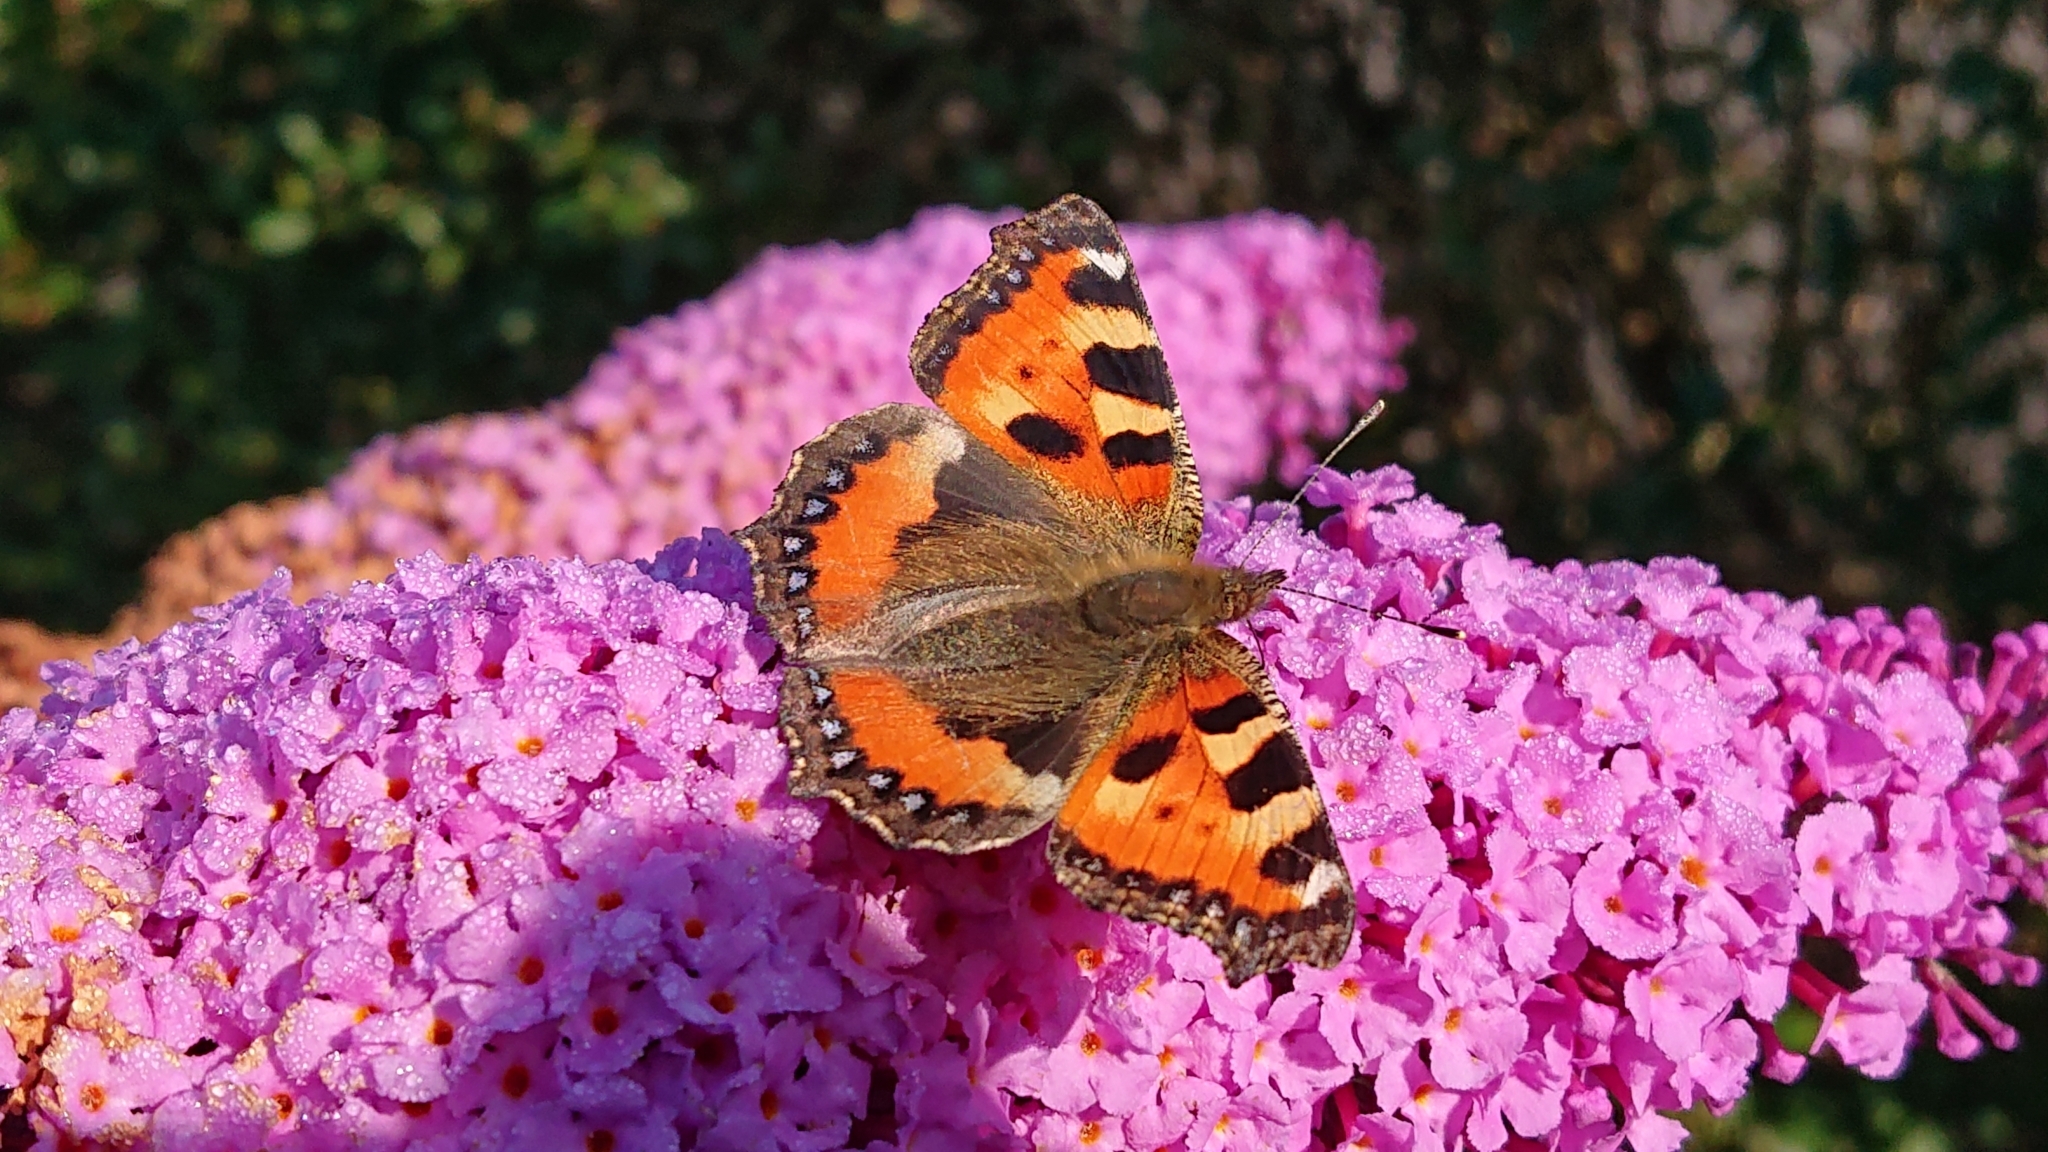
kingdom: Animalia
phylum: Arthropoda
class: Insecta
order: Lepidoptera
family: Nymphalidae
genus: Aglais
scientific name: Aglais urticae
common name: Small tortoiseshell
